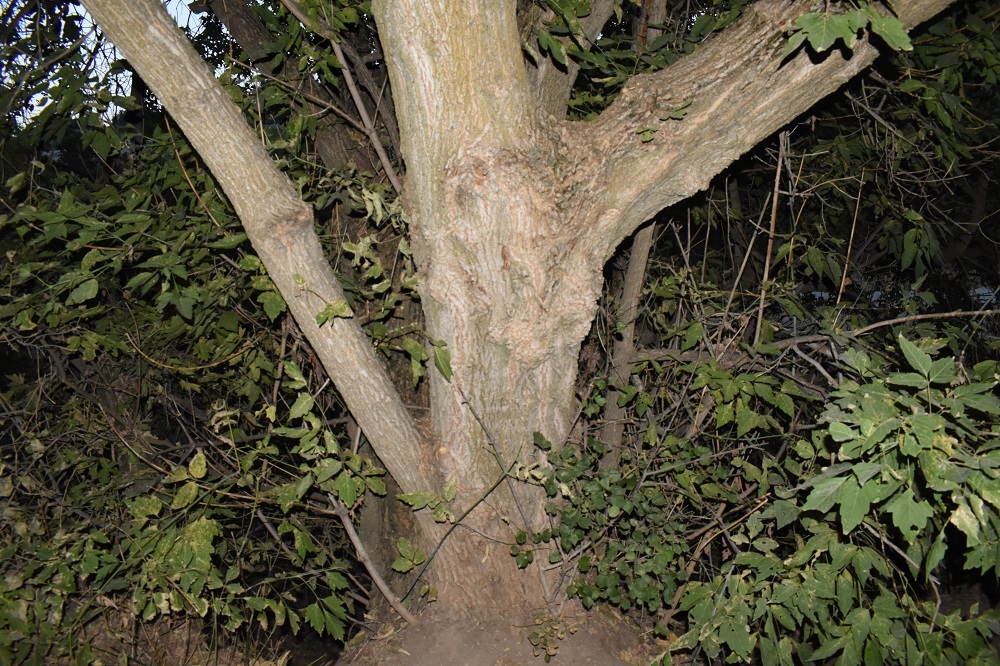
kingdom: Plantae
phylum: Tracheophyta
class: Magnoliopsida
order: Sapindales
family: Sapindaceae
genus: Acer
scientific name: Acer negundo
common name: Ashleaf maple
